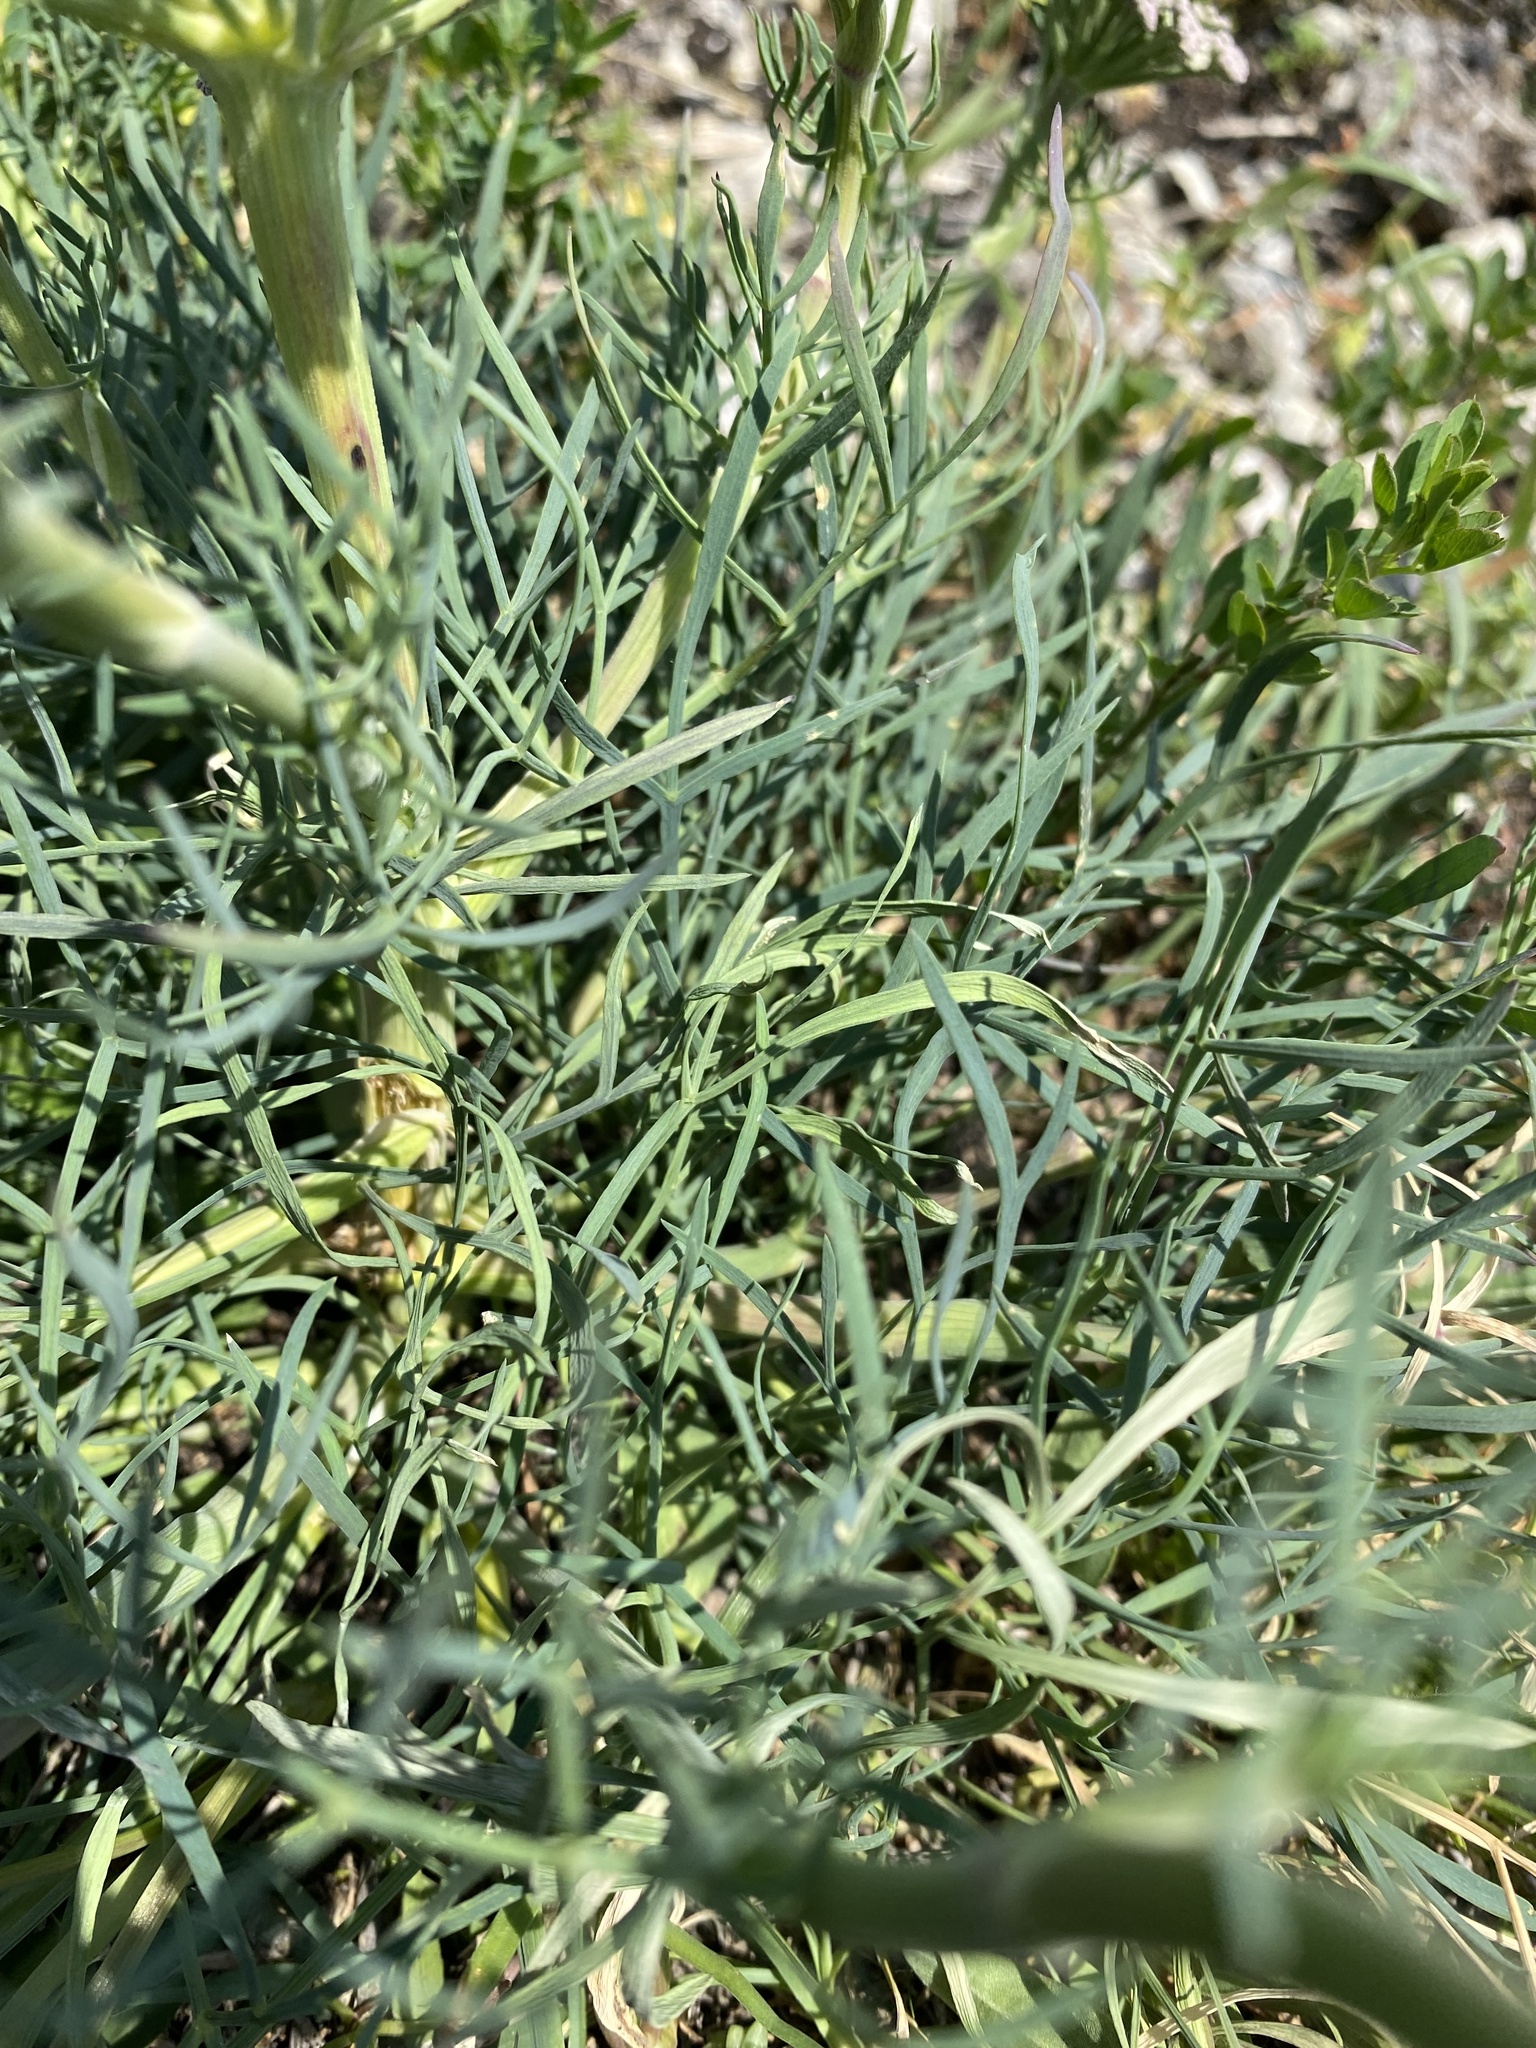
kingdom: Plantae
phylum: Tracheophyta
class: Magnoliopsida
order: Apiales
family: Apiaceae
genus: Seseli
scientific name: Seseli arenarium
